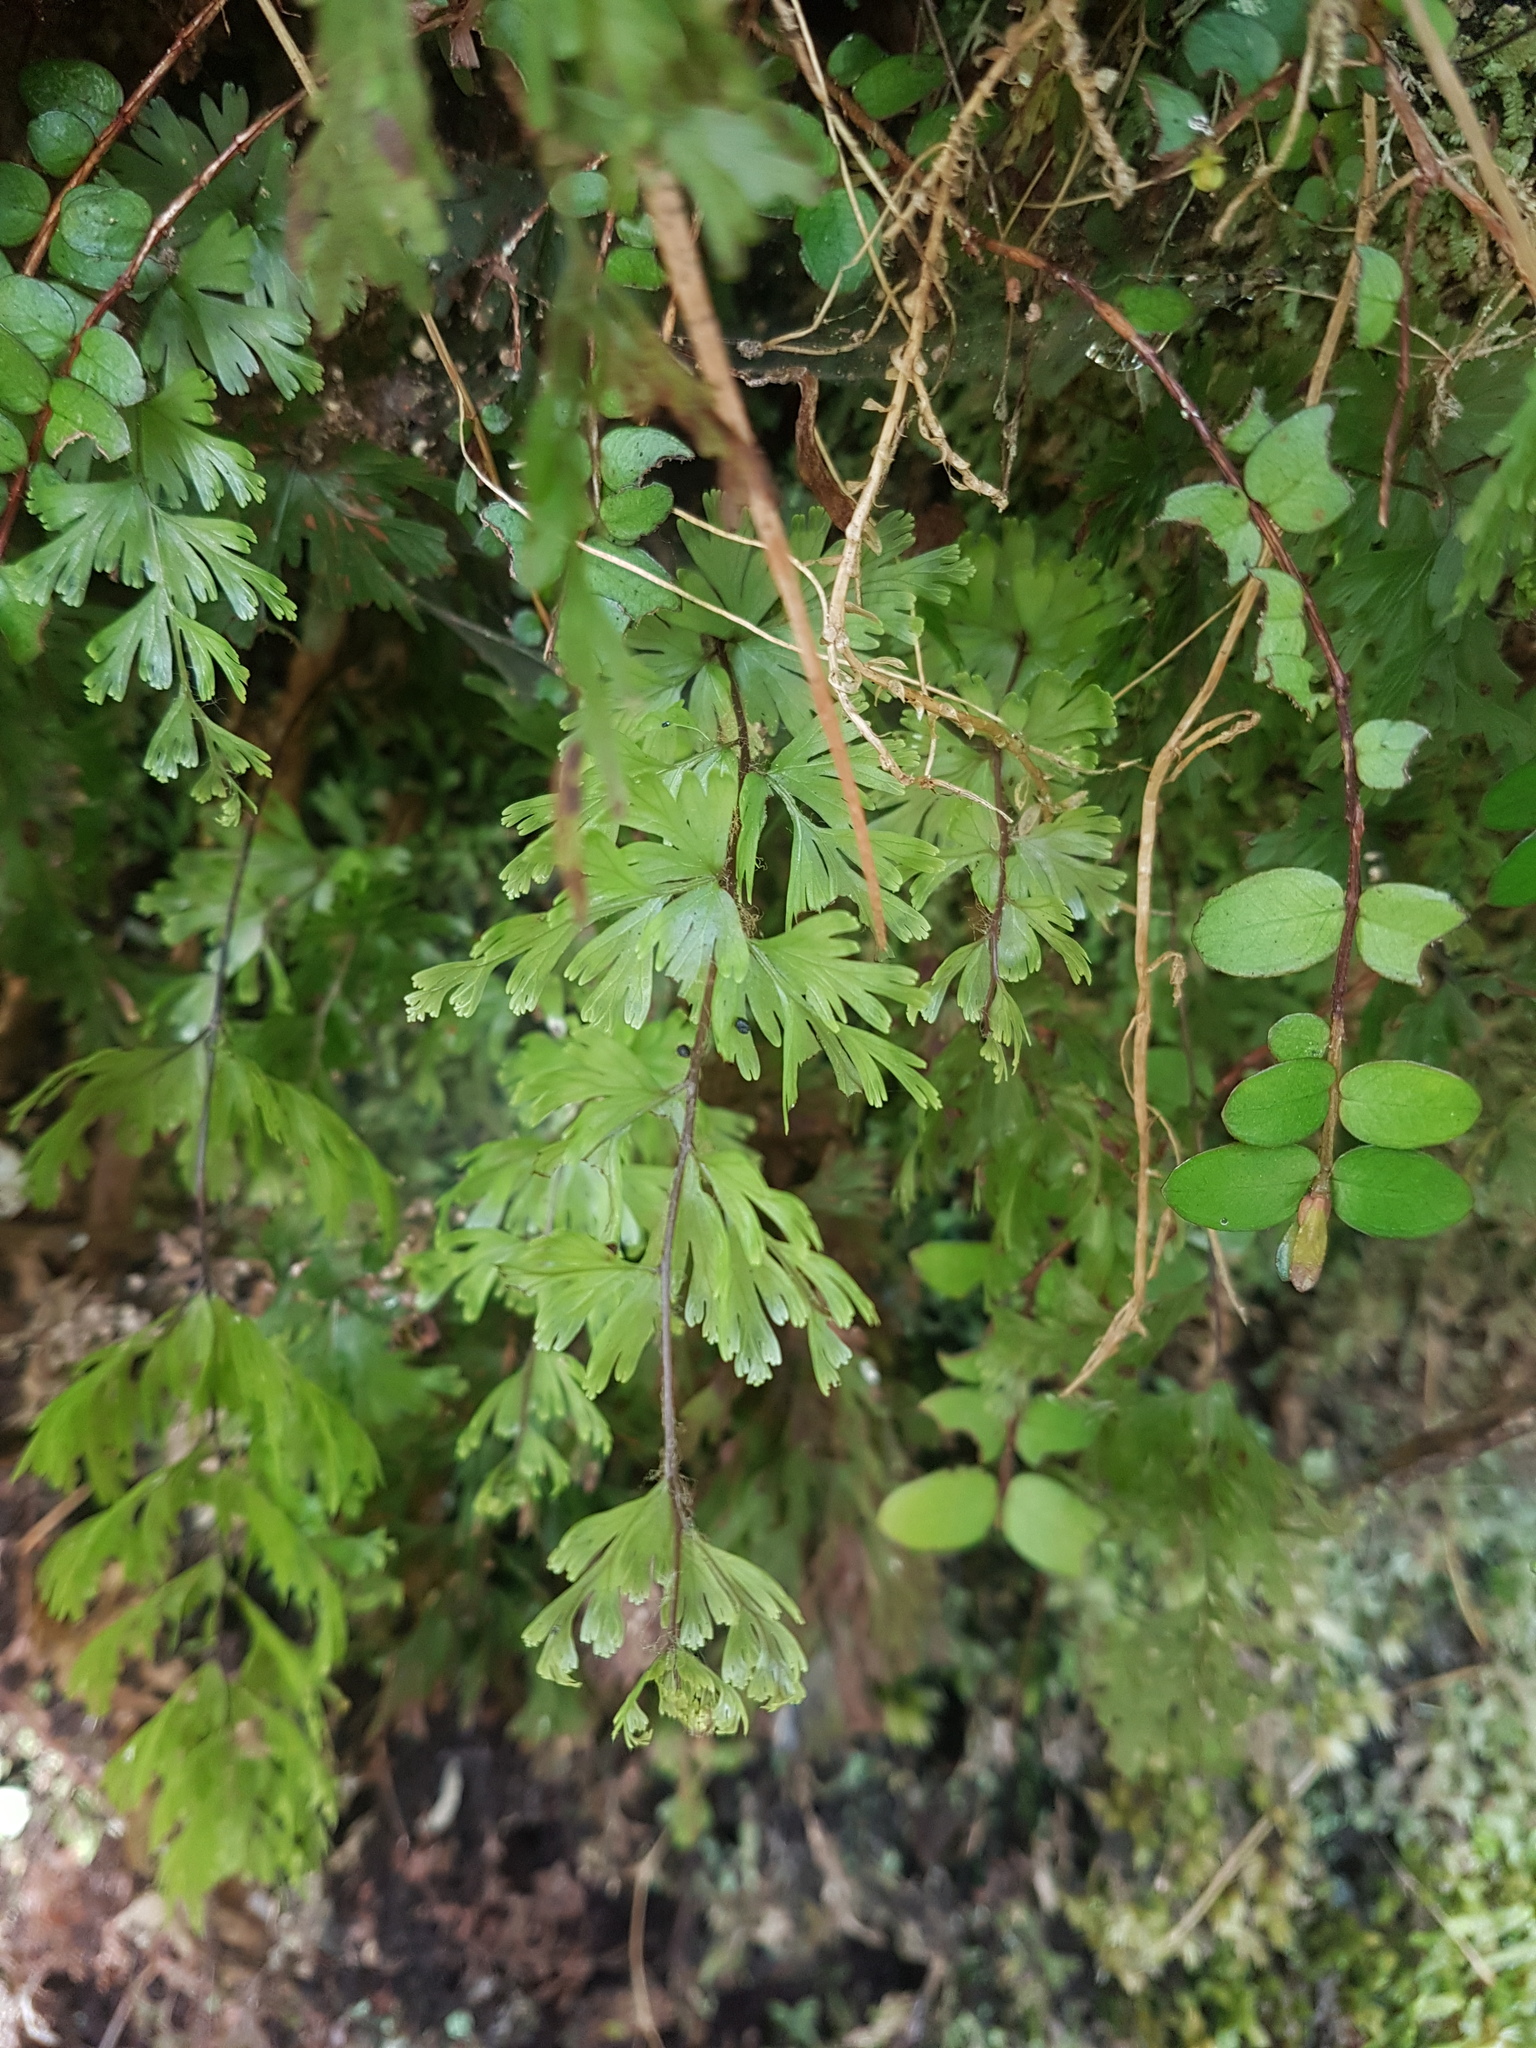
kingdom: Plantae
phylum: Tracheophyta
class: Polypodiopsida
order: Hymenophyllales
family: Hymenophyllaceae
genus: Hymenophyllum
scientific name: Hymenophyllum flabellatum
